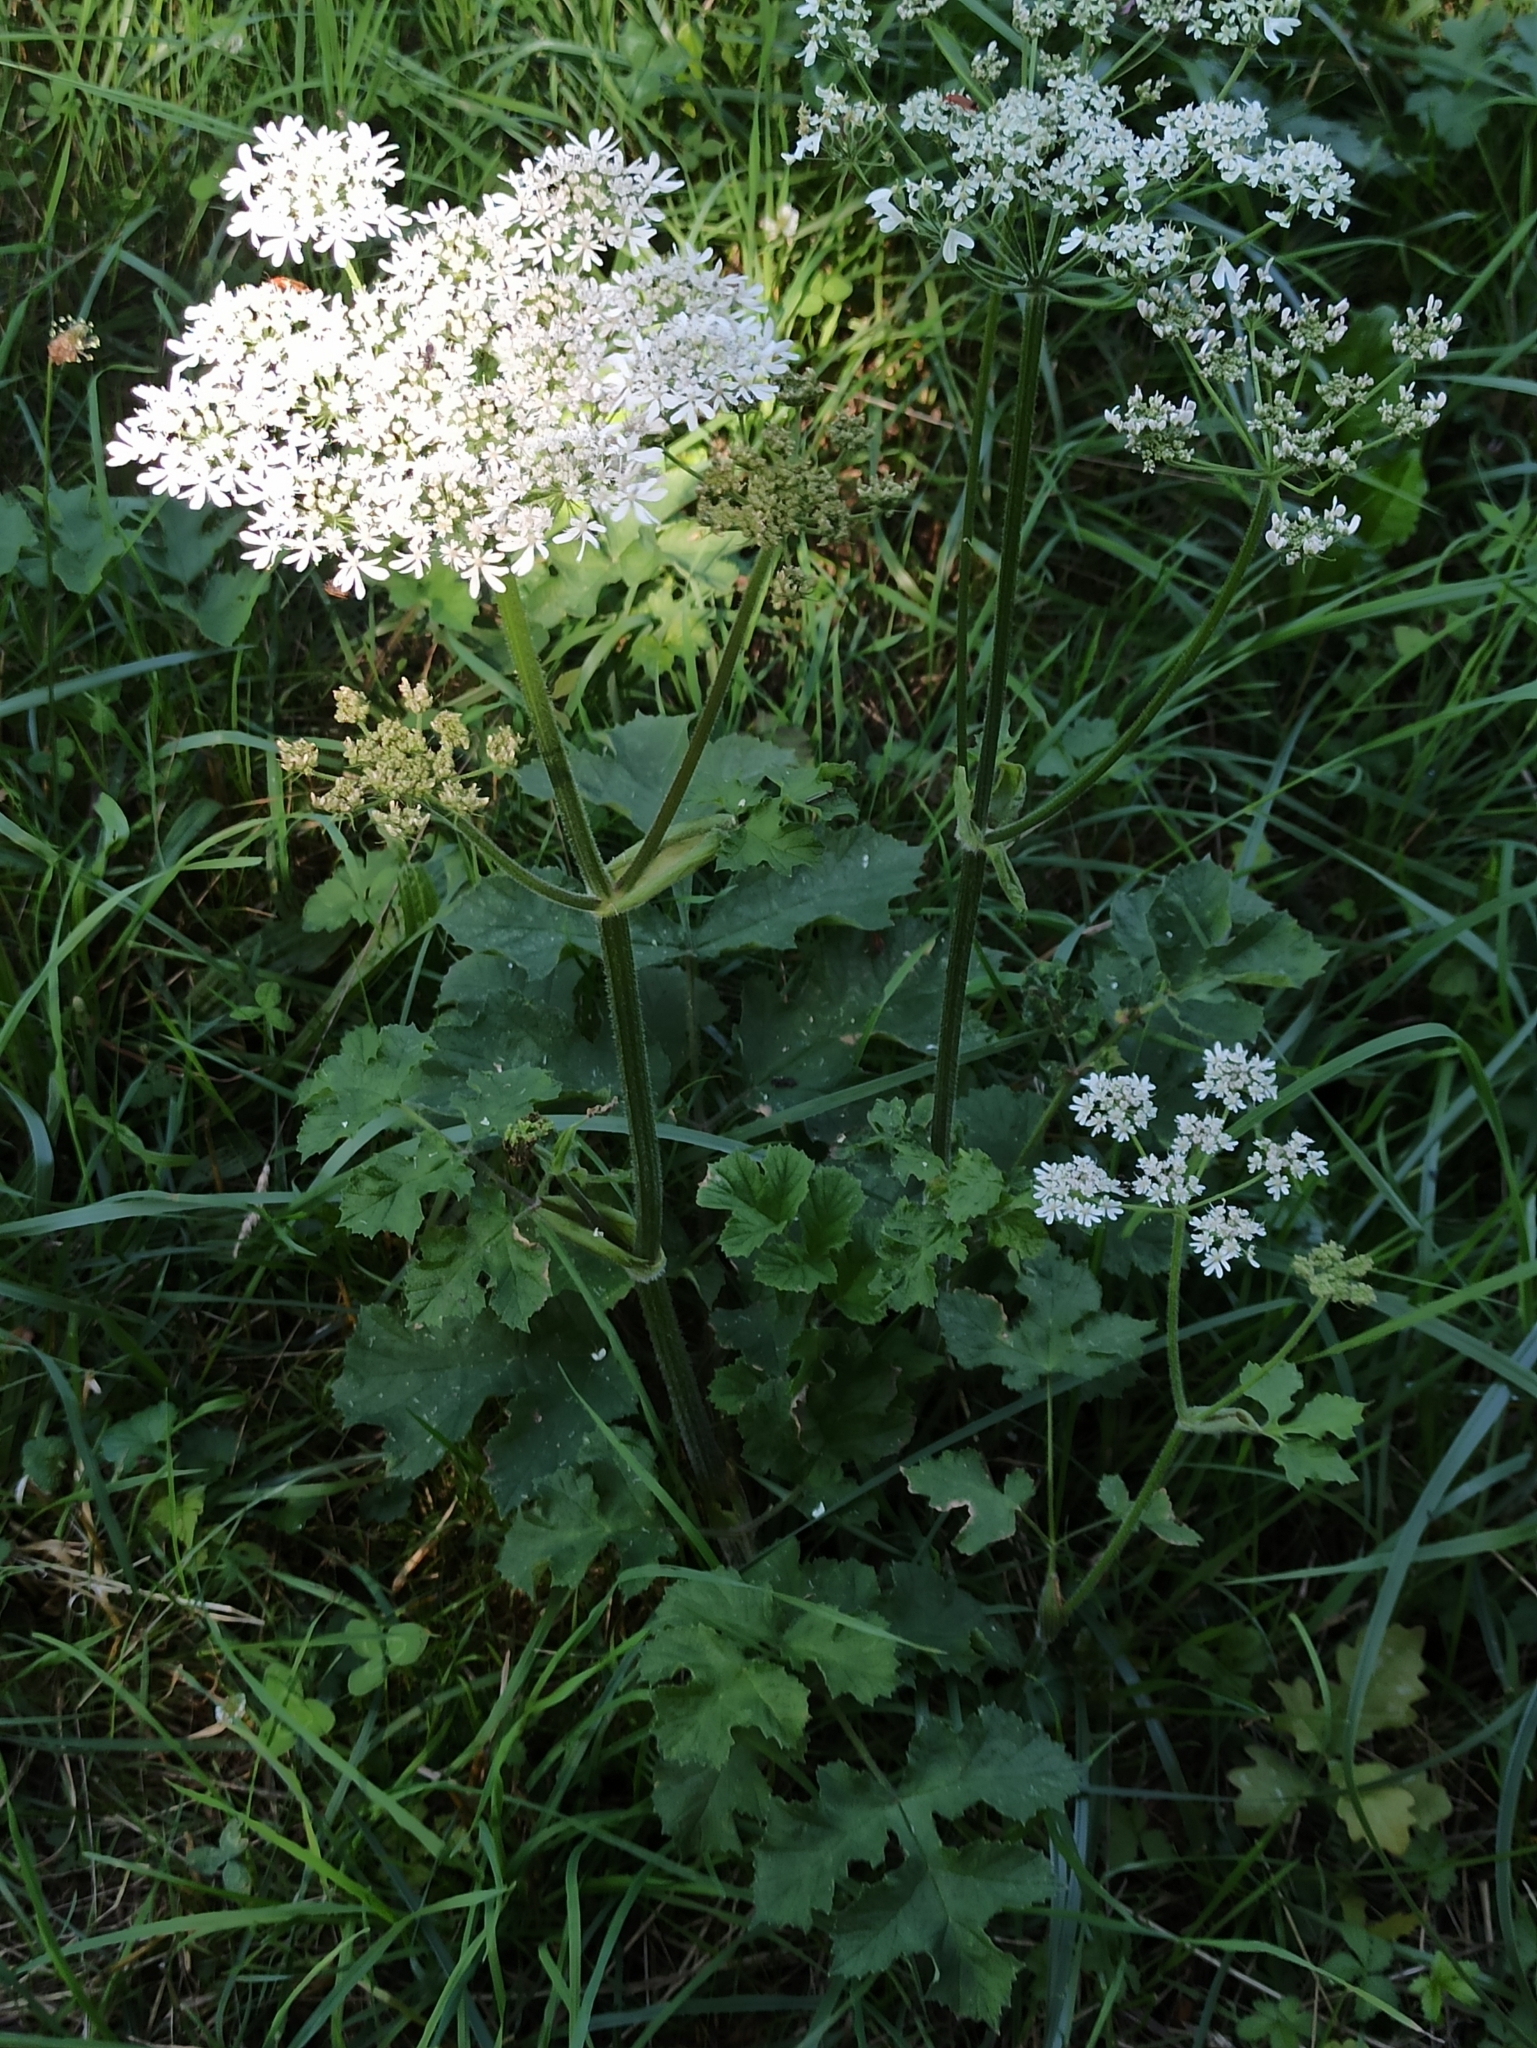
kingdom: Plantae
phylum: Tracheophyta
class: Magnoliopsida
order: Apiales
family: Apiaceae
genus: Heracleum
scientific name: Heracleum sphondylium
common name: Hogweed
